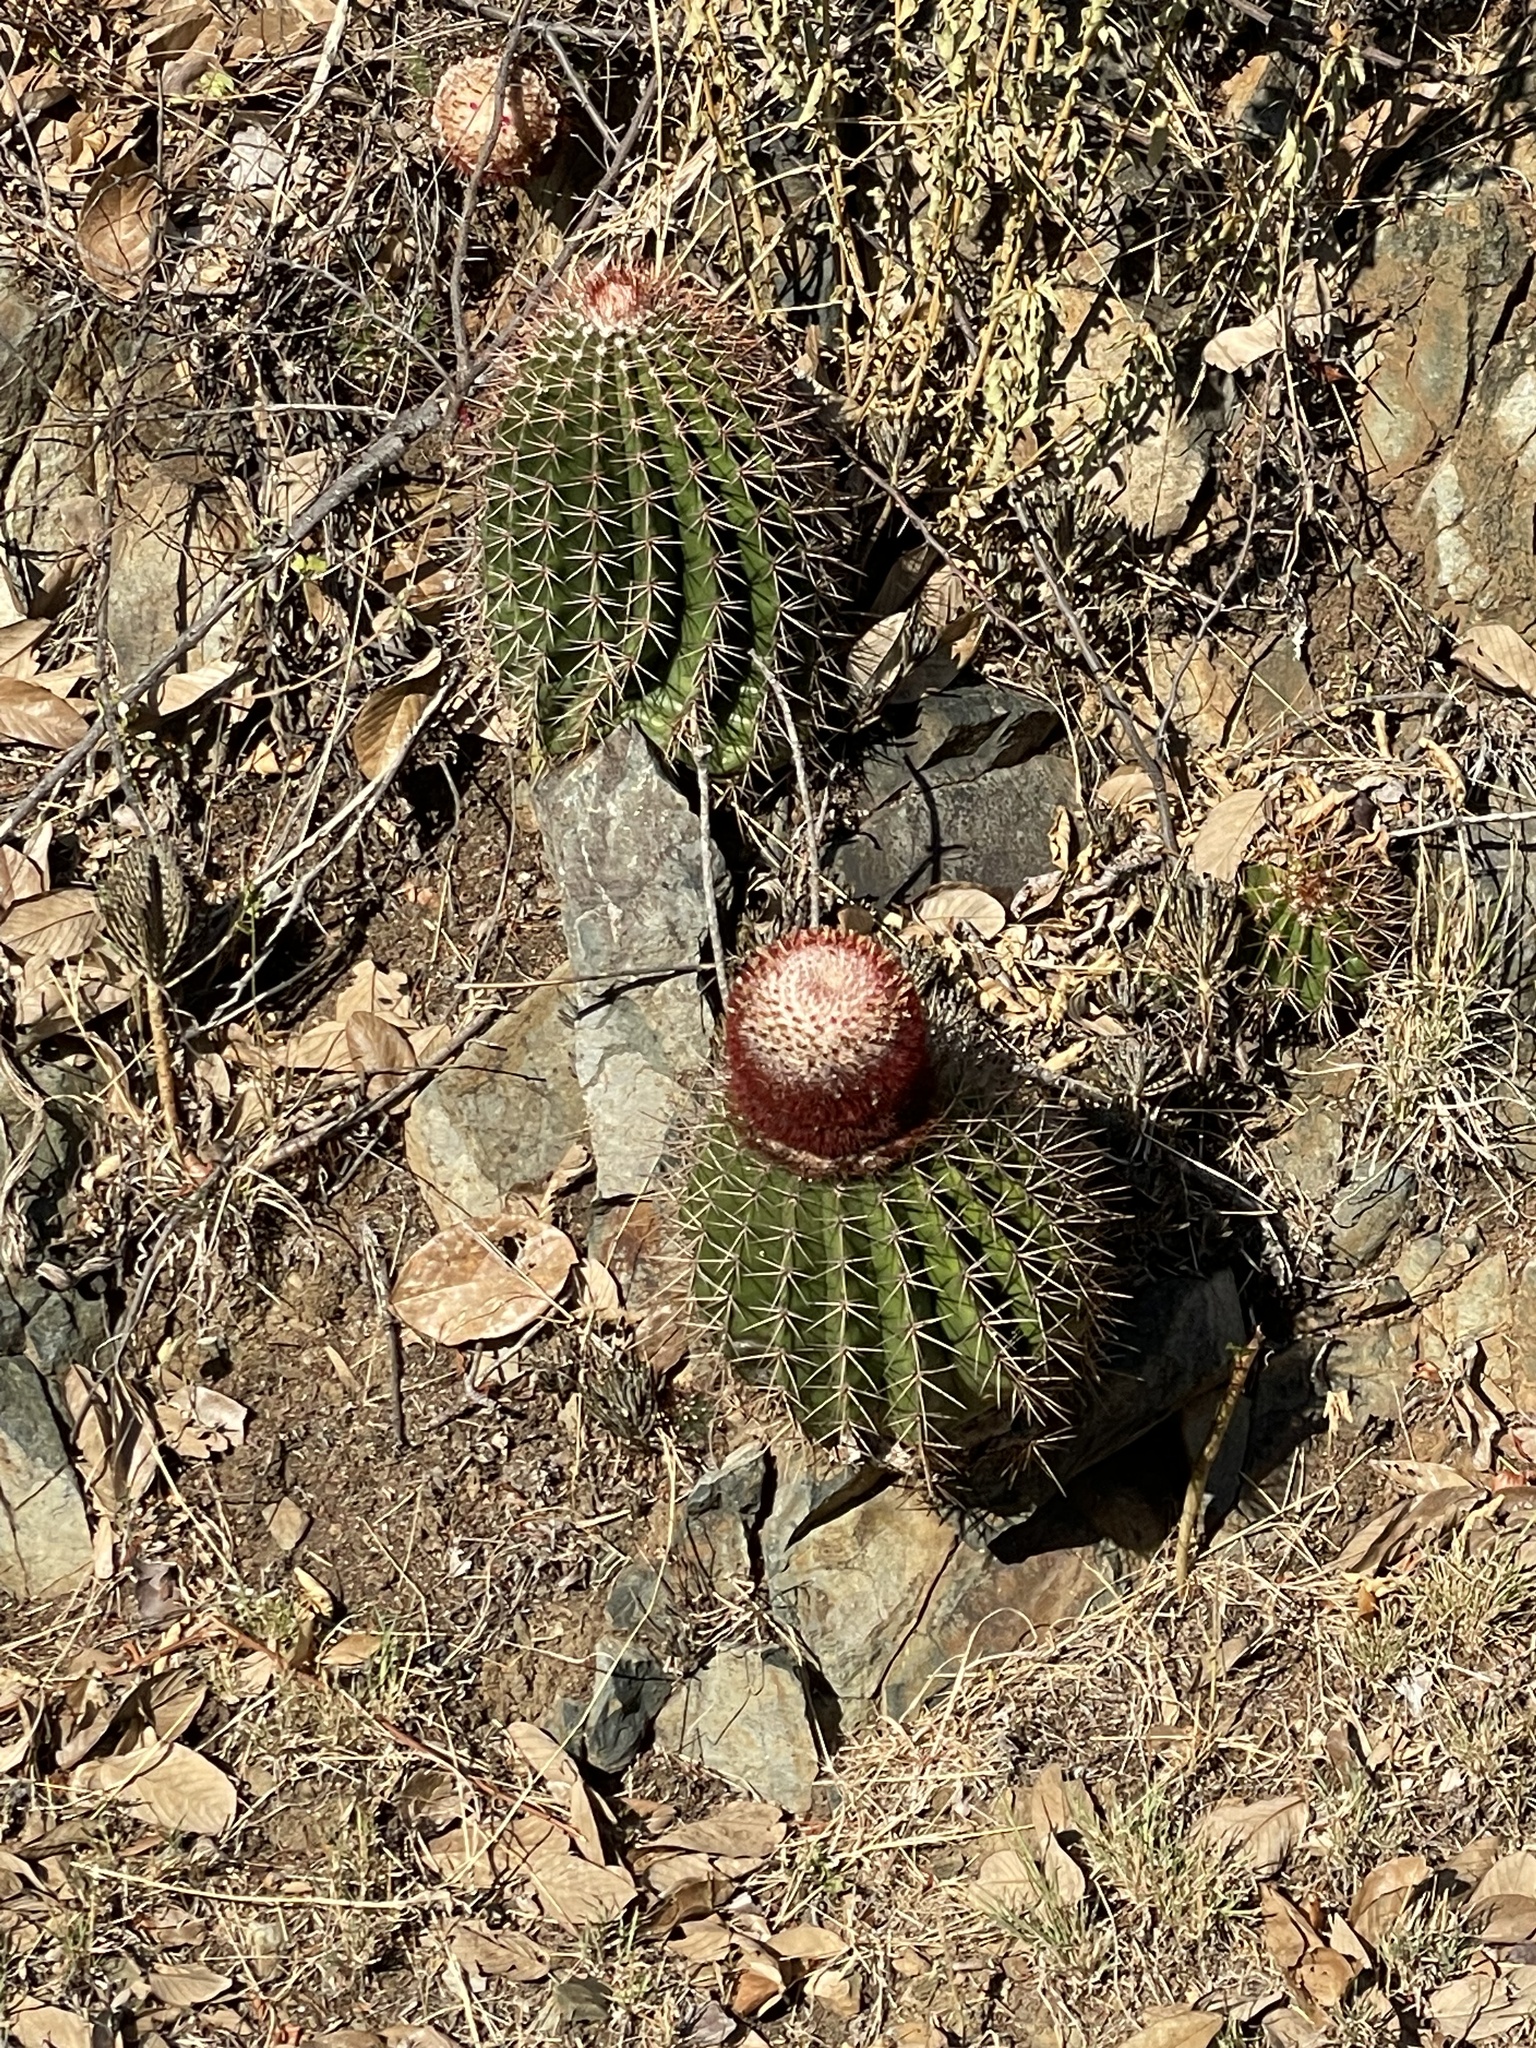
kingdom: Plantae
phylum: Tracheophyta
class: Magnoliopsida
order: Caryophyllales
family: Cactaceae
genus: Melocactus
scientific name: Melocactus intortus
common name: Barrel cactus
